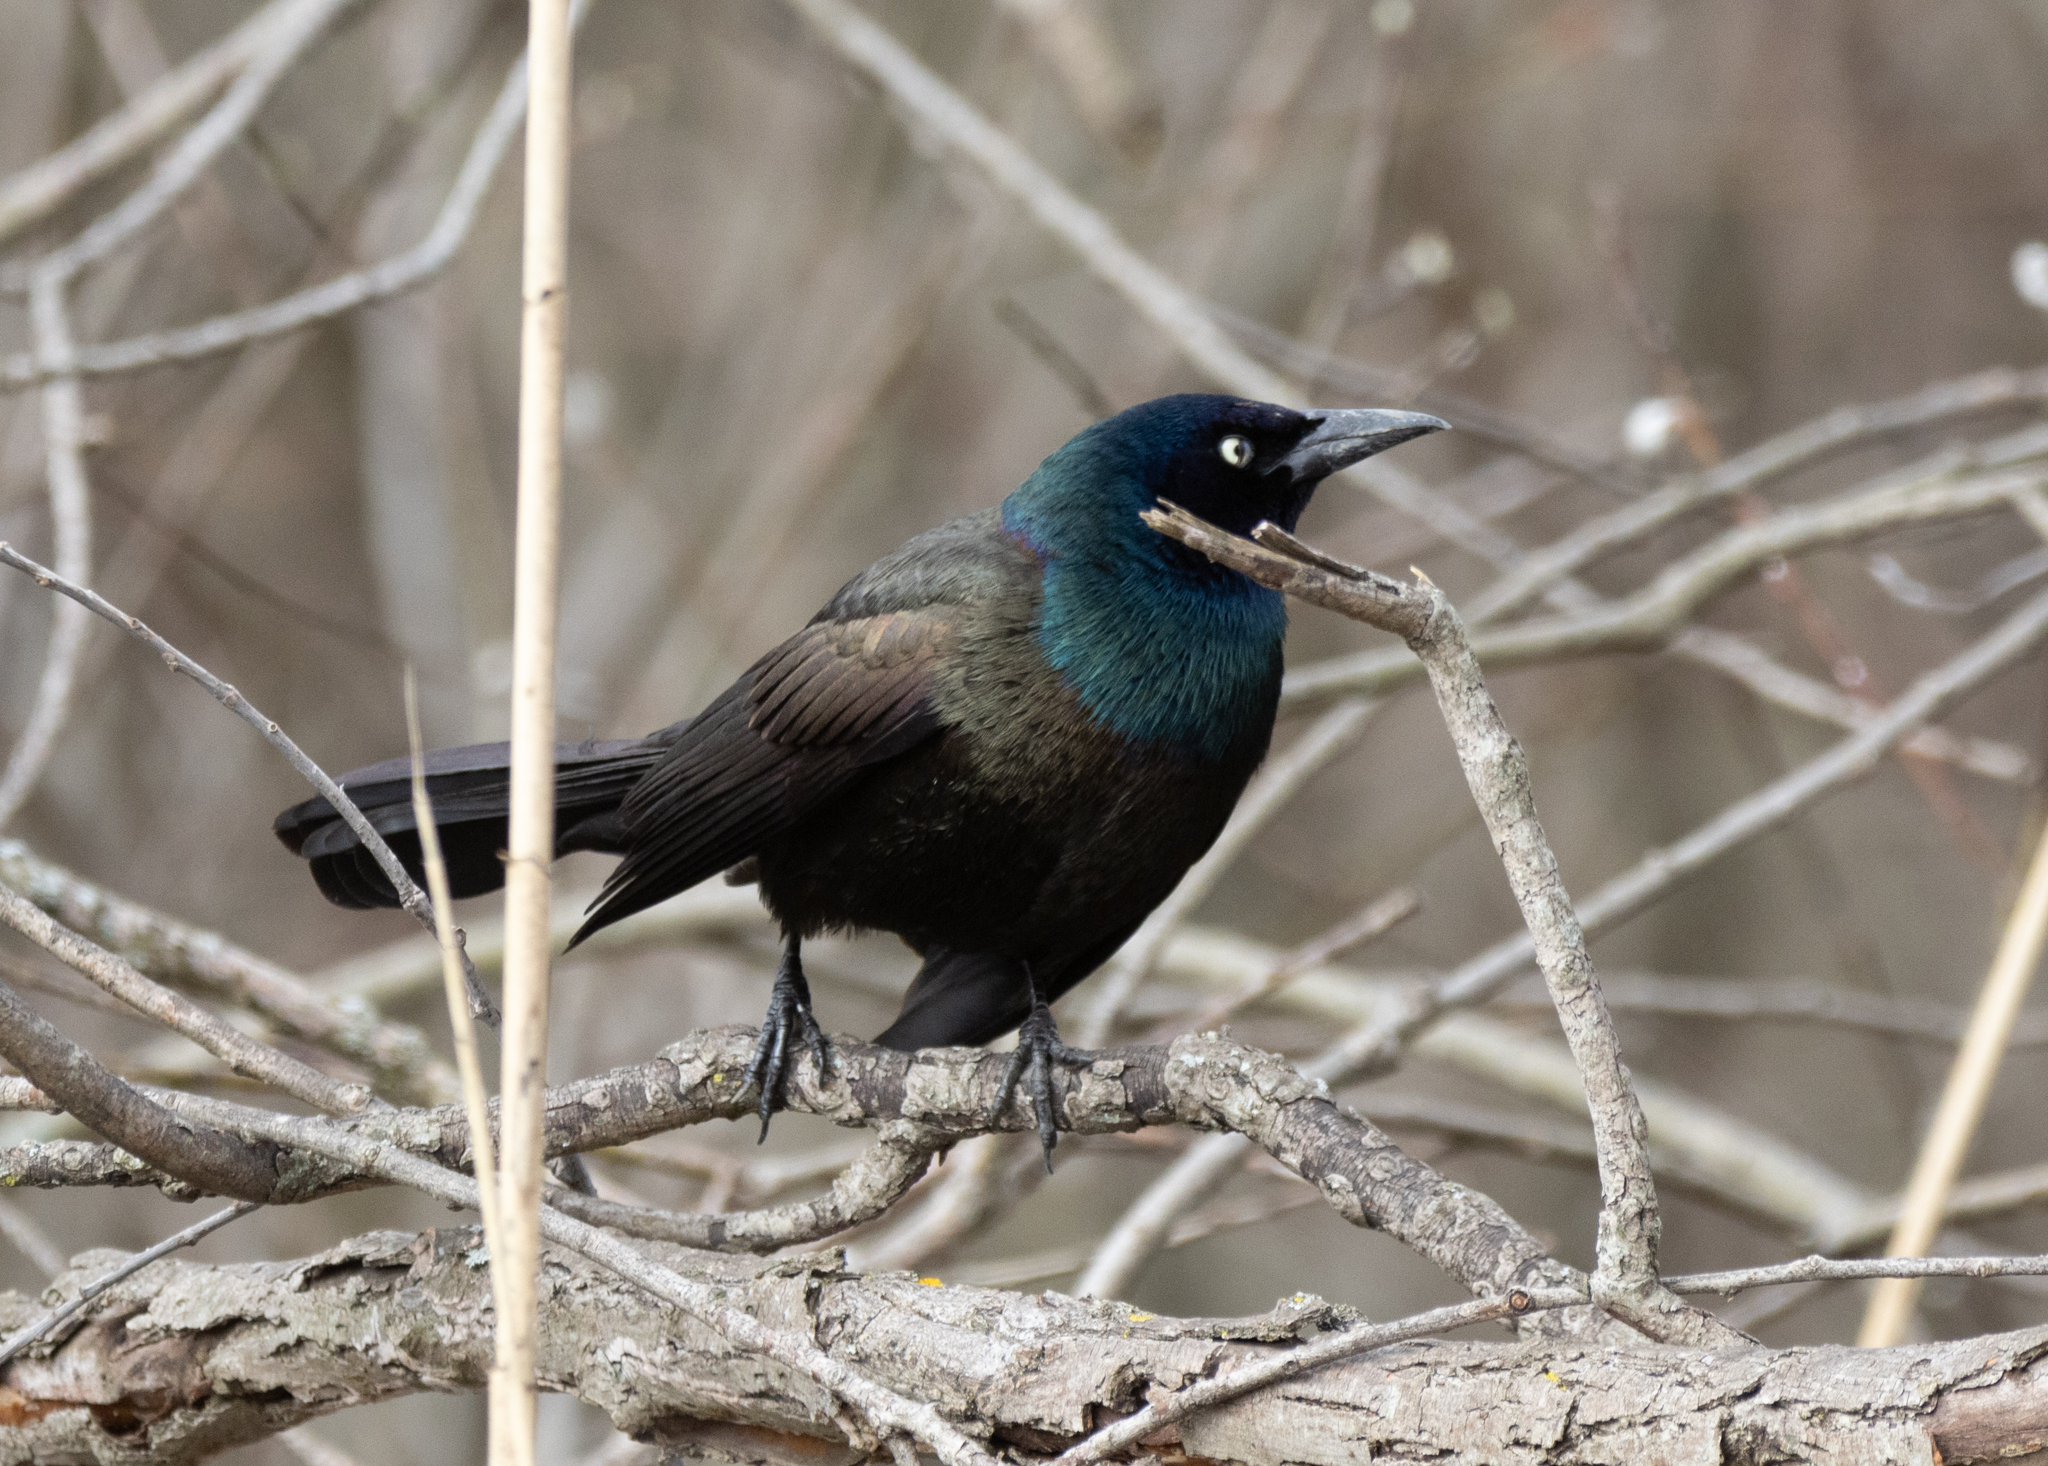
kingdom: Animalia
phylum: Chordata
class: Aves
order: Passeriformes
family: Icteridae
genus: Quiscalus
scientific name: Quiscalus quiscula
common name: Common grackle
